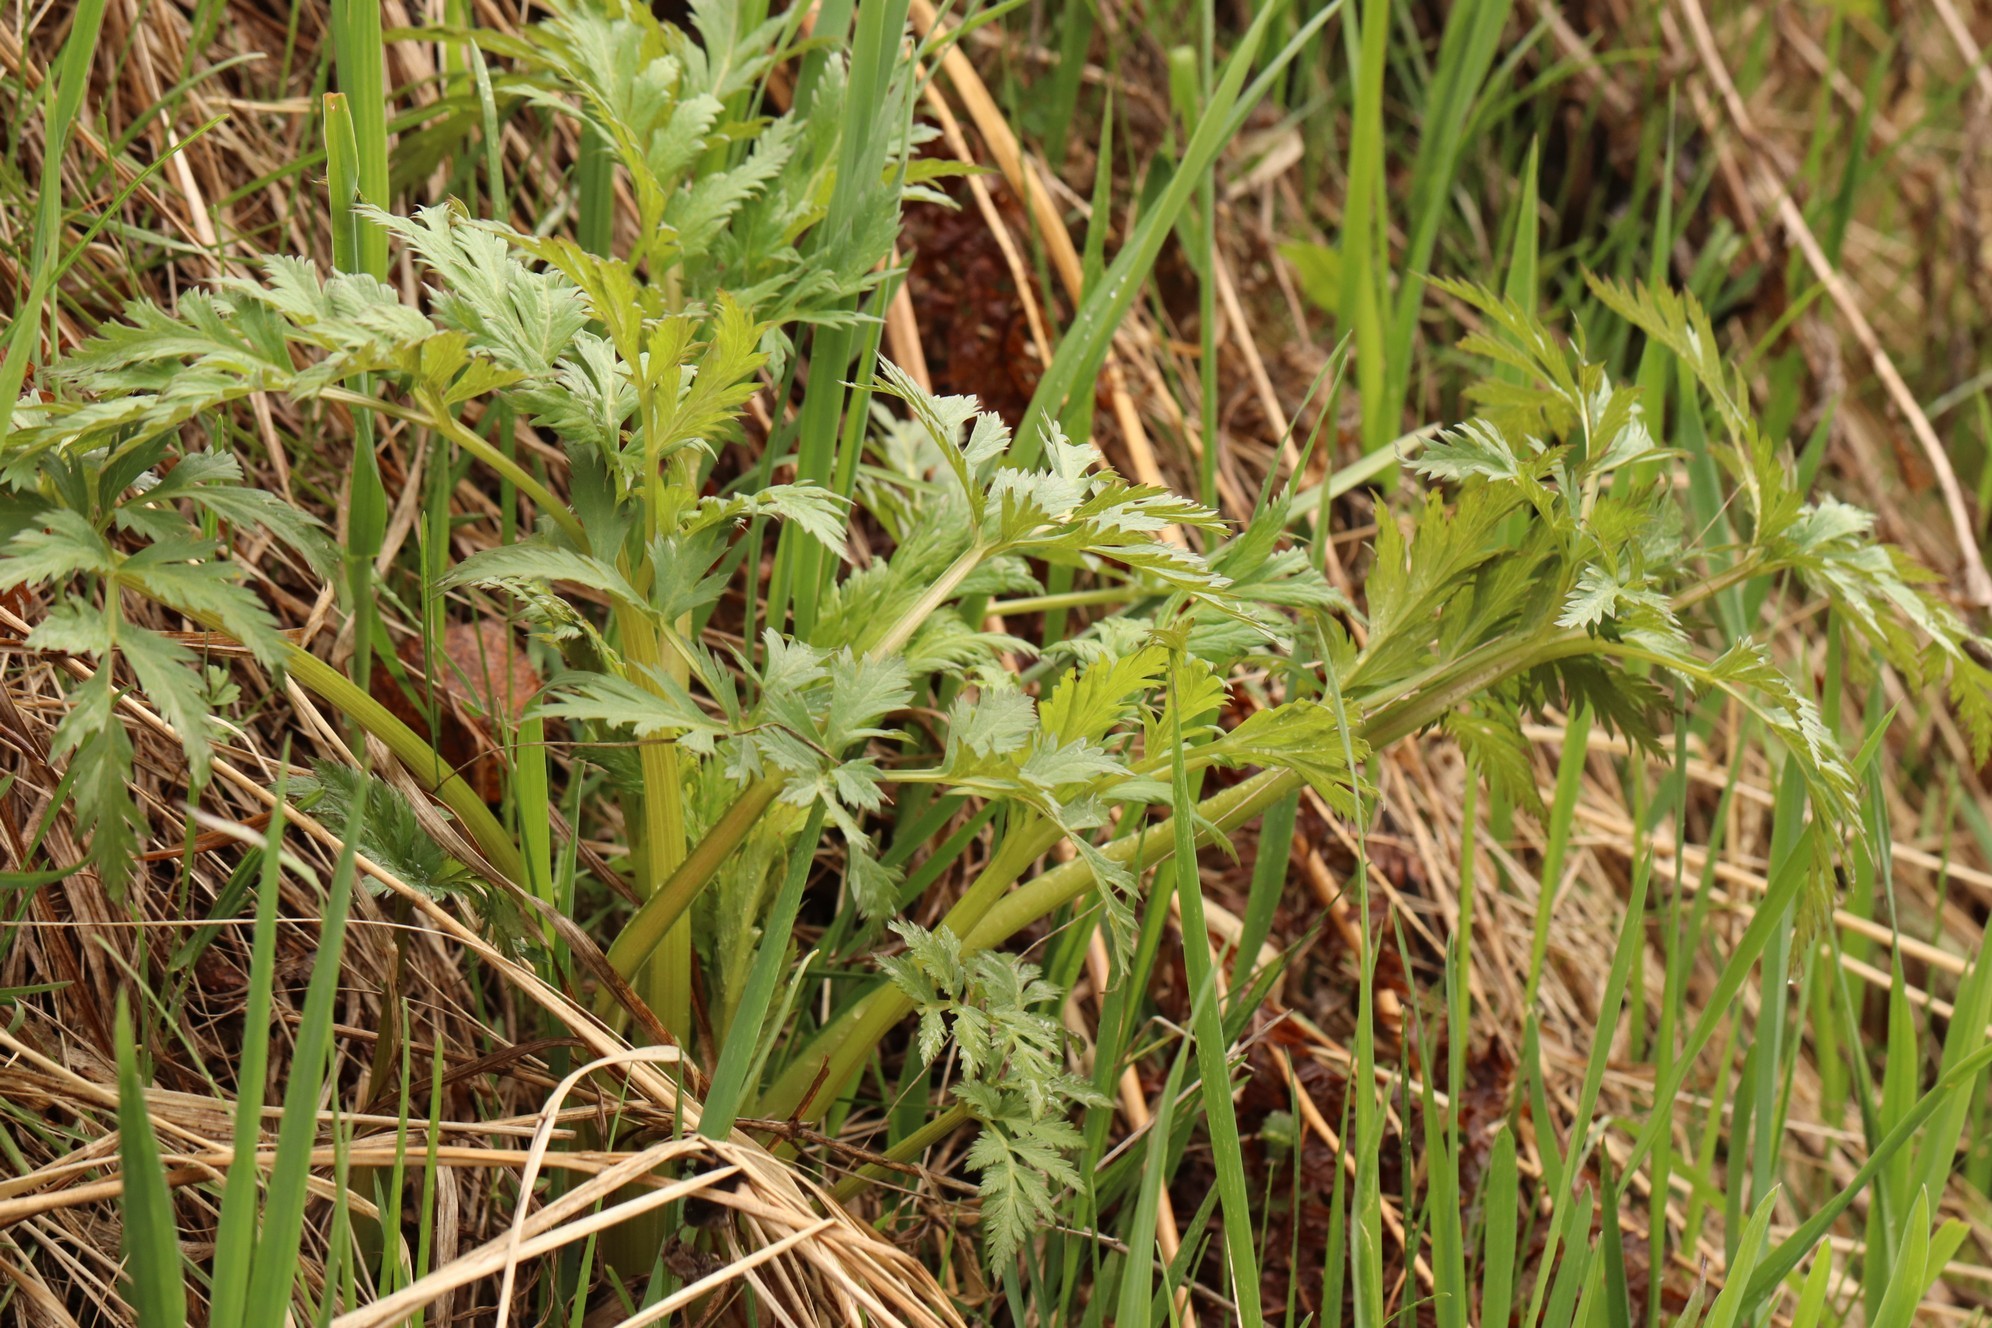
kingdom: Plantae
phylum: Tracheophyta
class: Magnoliopsida
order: Apiales
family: Apiaceae
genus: Pleurospermum
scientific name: Pleurospermum uralense
